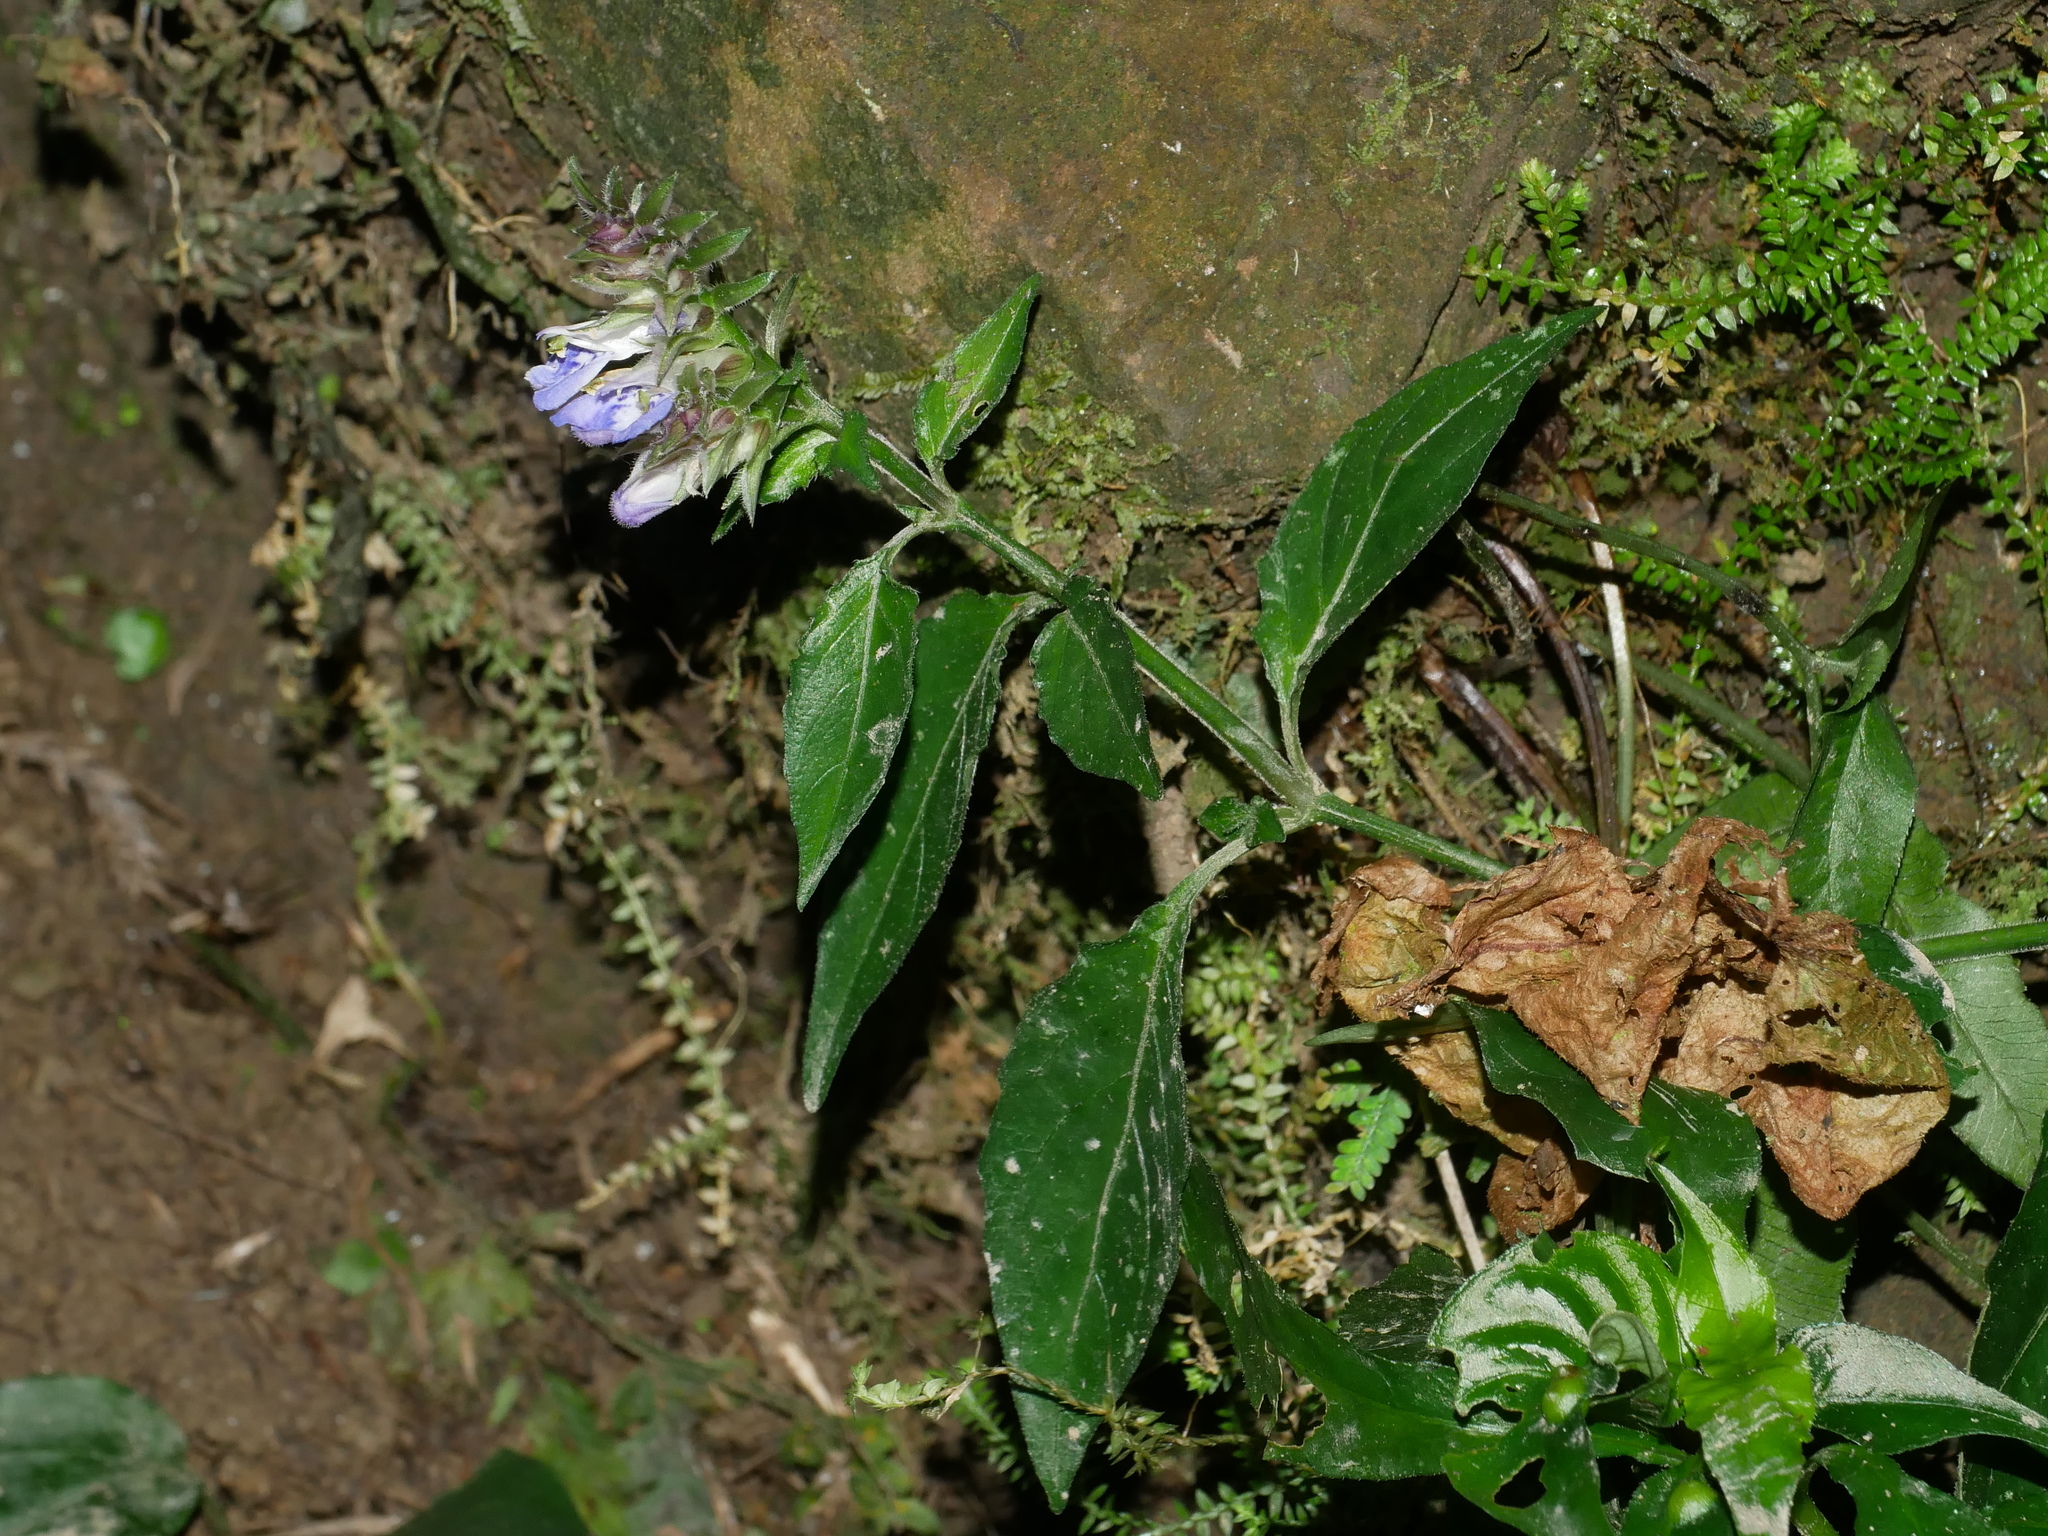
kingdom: Plantae
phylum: Tracheophyta
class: Magnoliopsida
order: Lamiales
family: Acanthaceae
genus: Rungia
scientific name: Rungia taiwanensis
